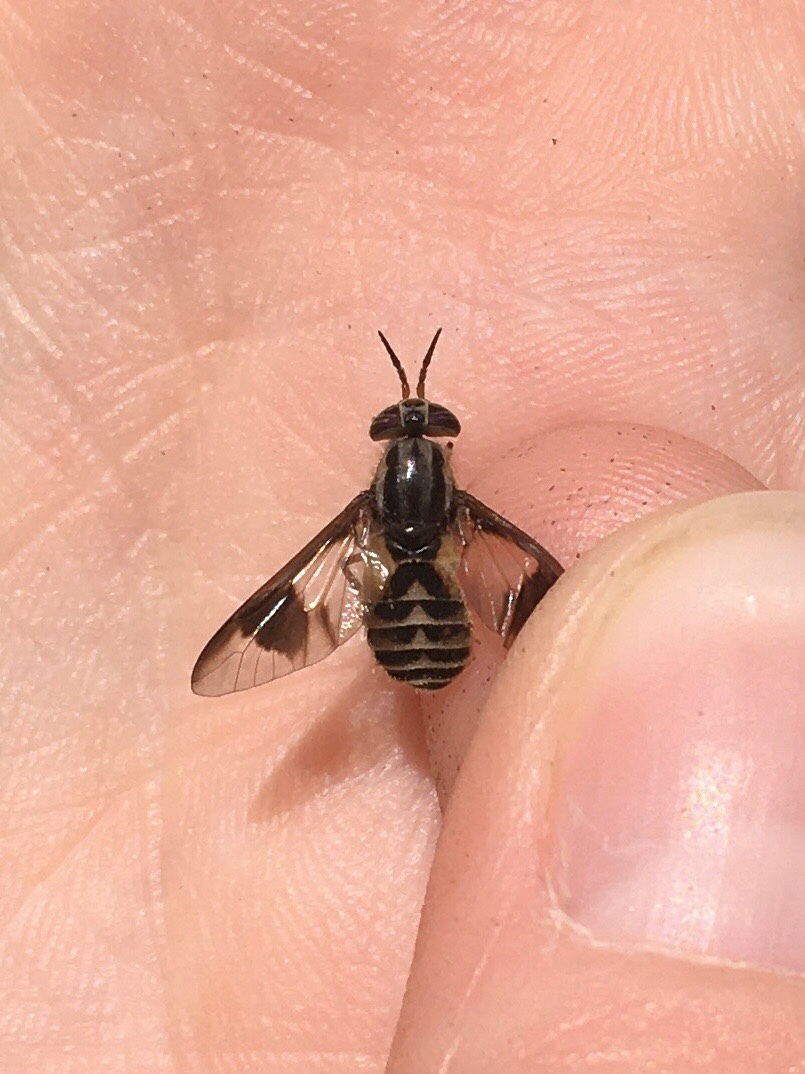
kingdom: Animalia
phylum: Arthropoda
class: Insecta
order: Diptera
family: Tabanidae
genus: Chrysops
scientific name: Chrysops sackeni
